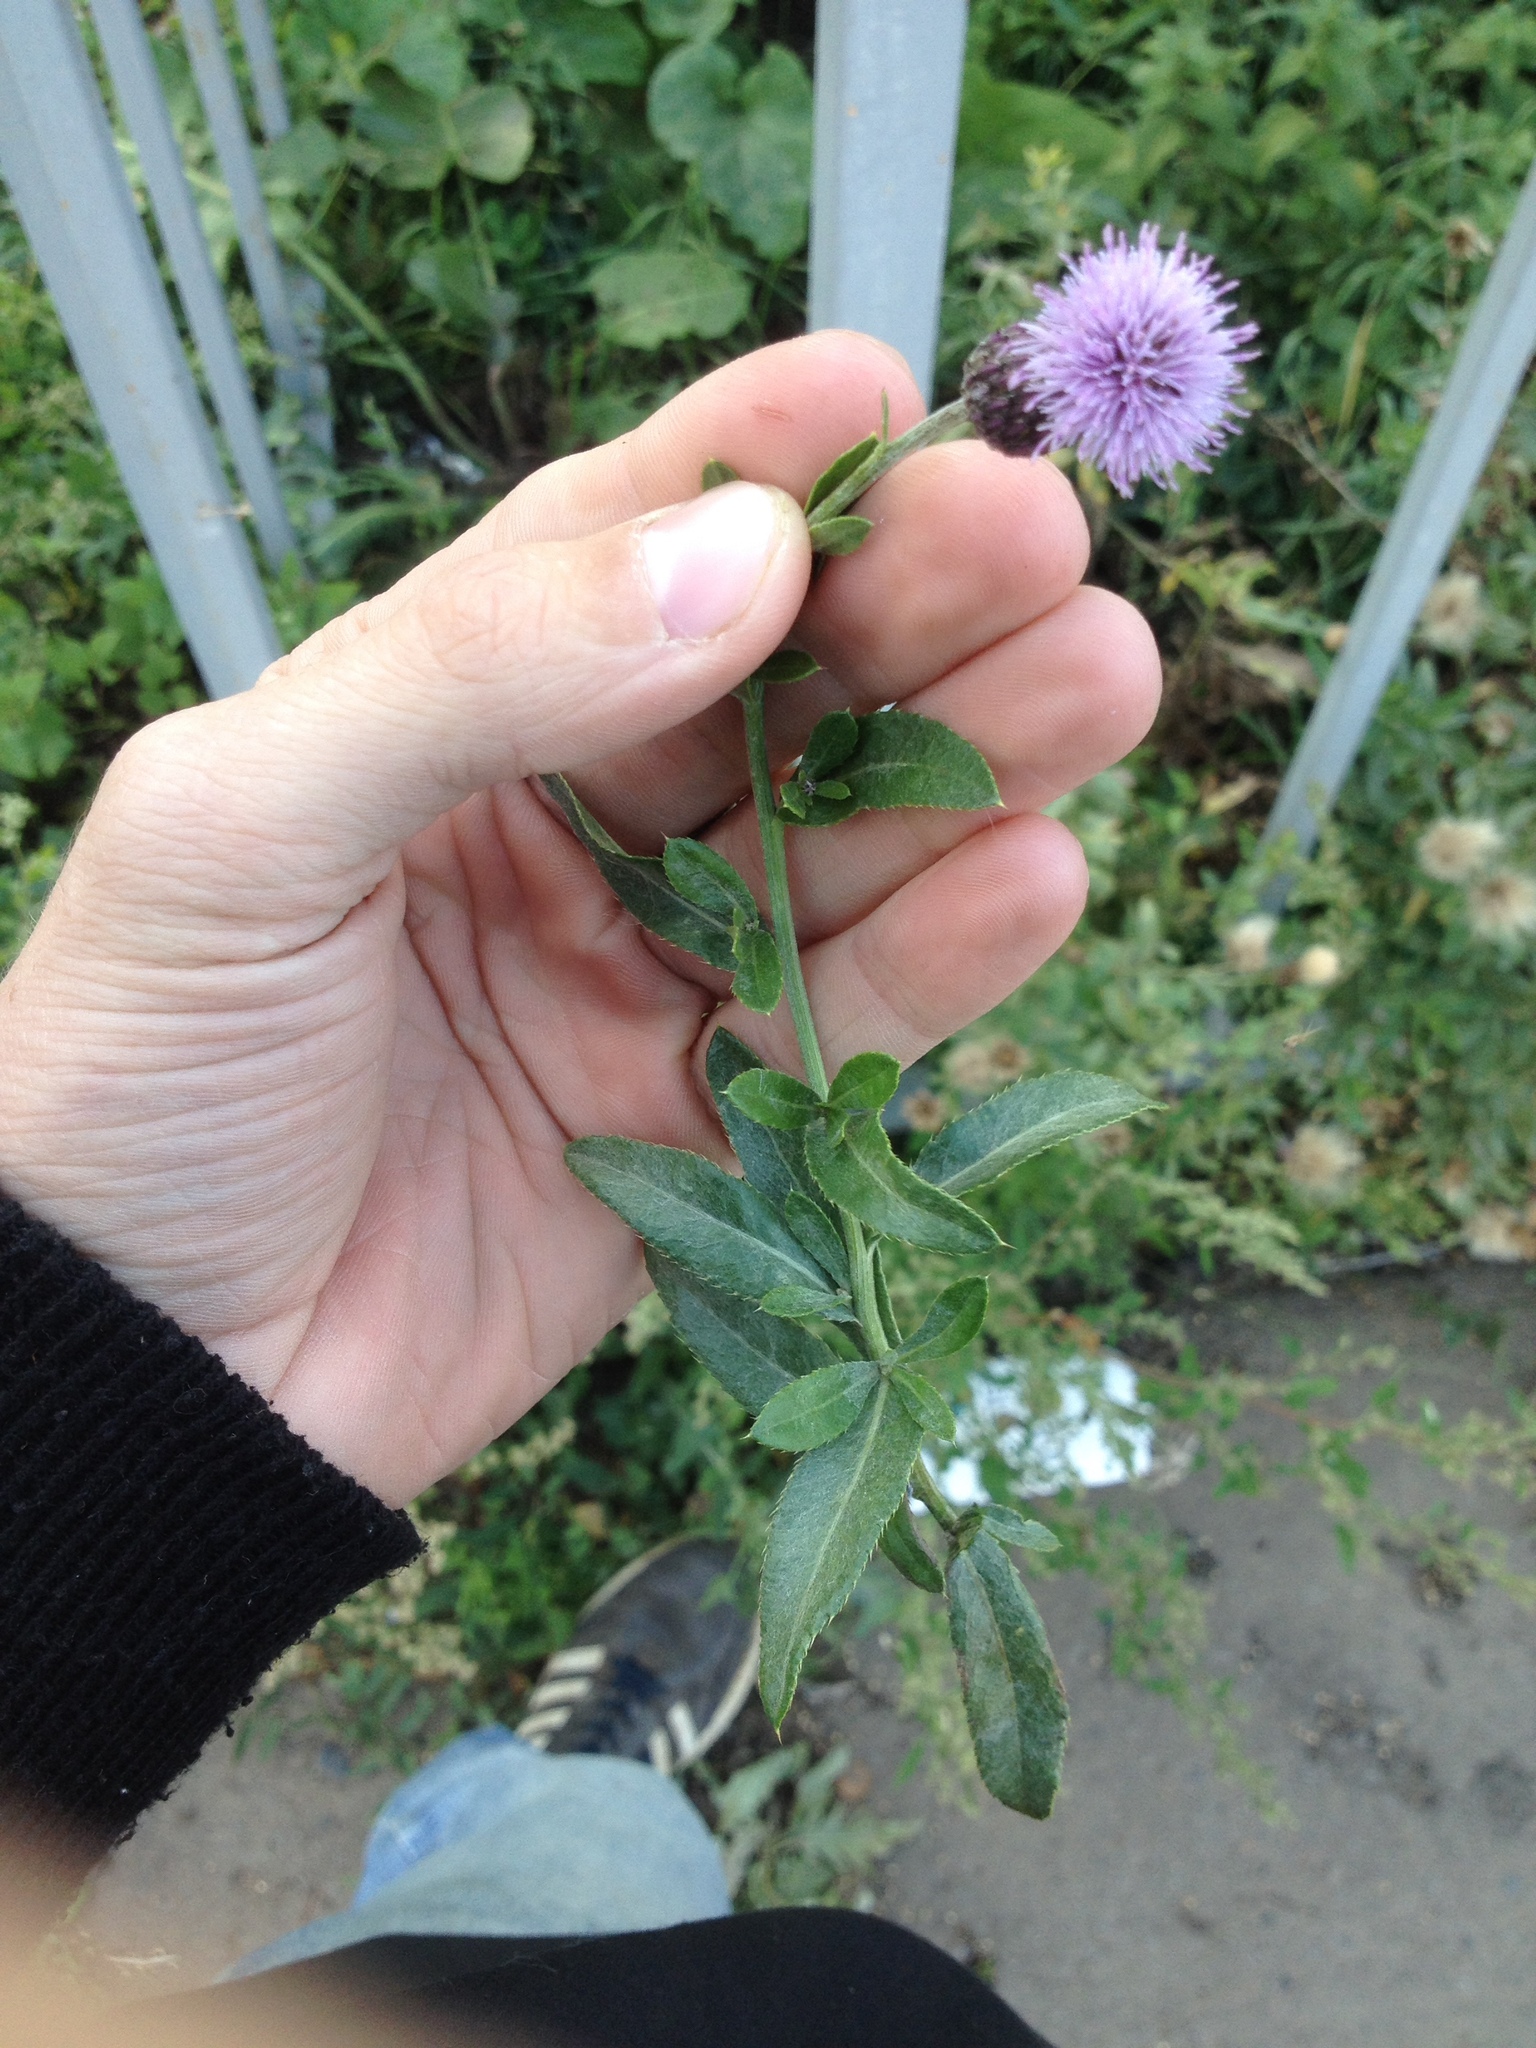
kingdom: Plantae
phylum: Tracheophyta
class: Magnoliopsida
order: Asterales
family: Asteraceae
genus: Cirsium
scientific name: Cirsium arvense
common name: Creeping thistle
